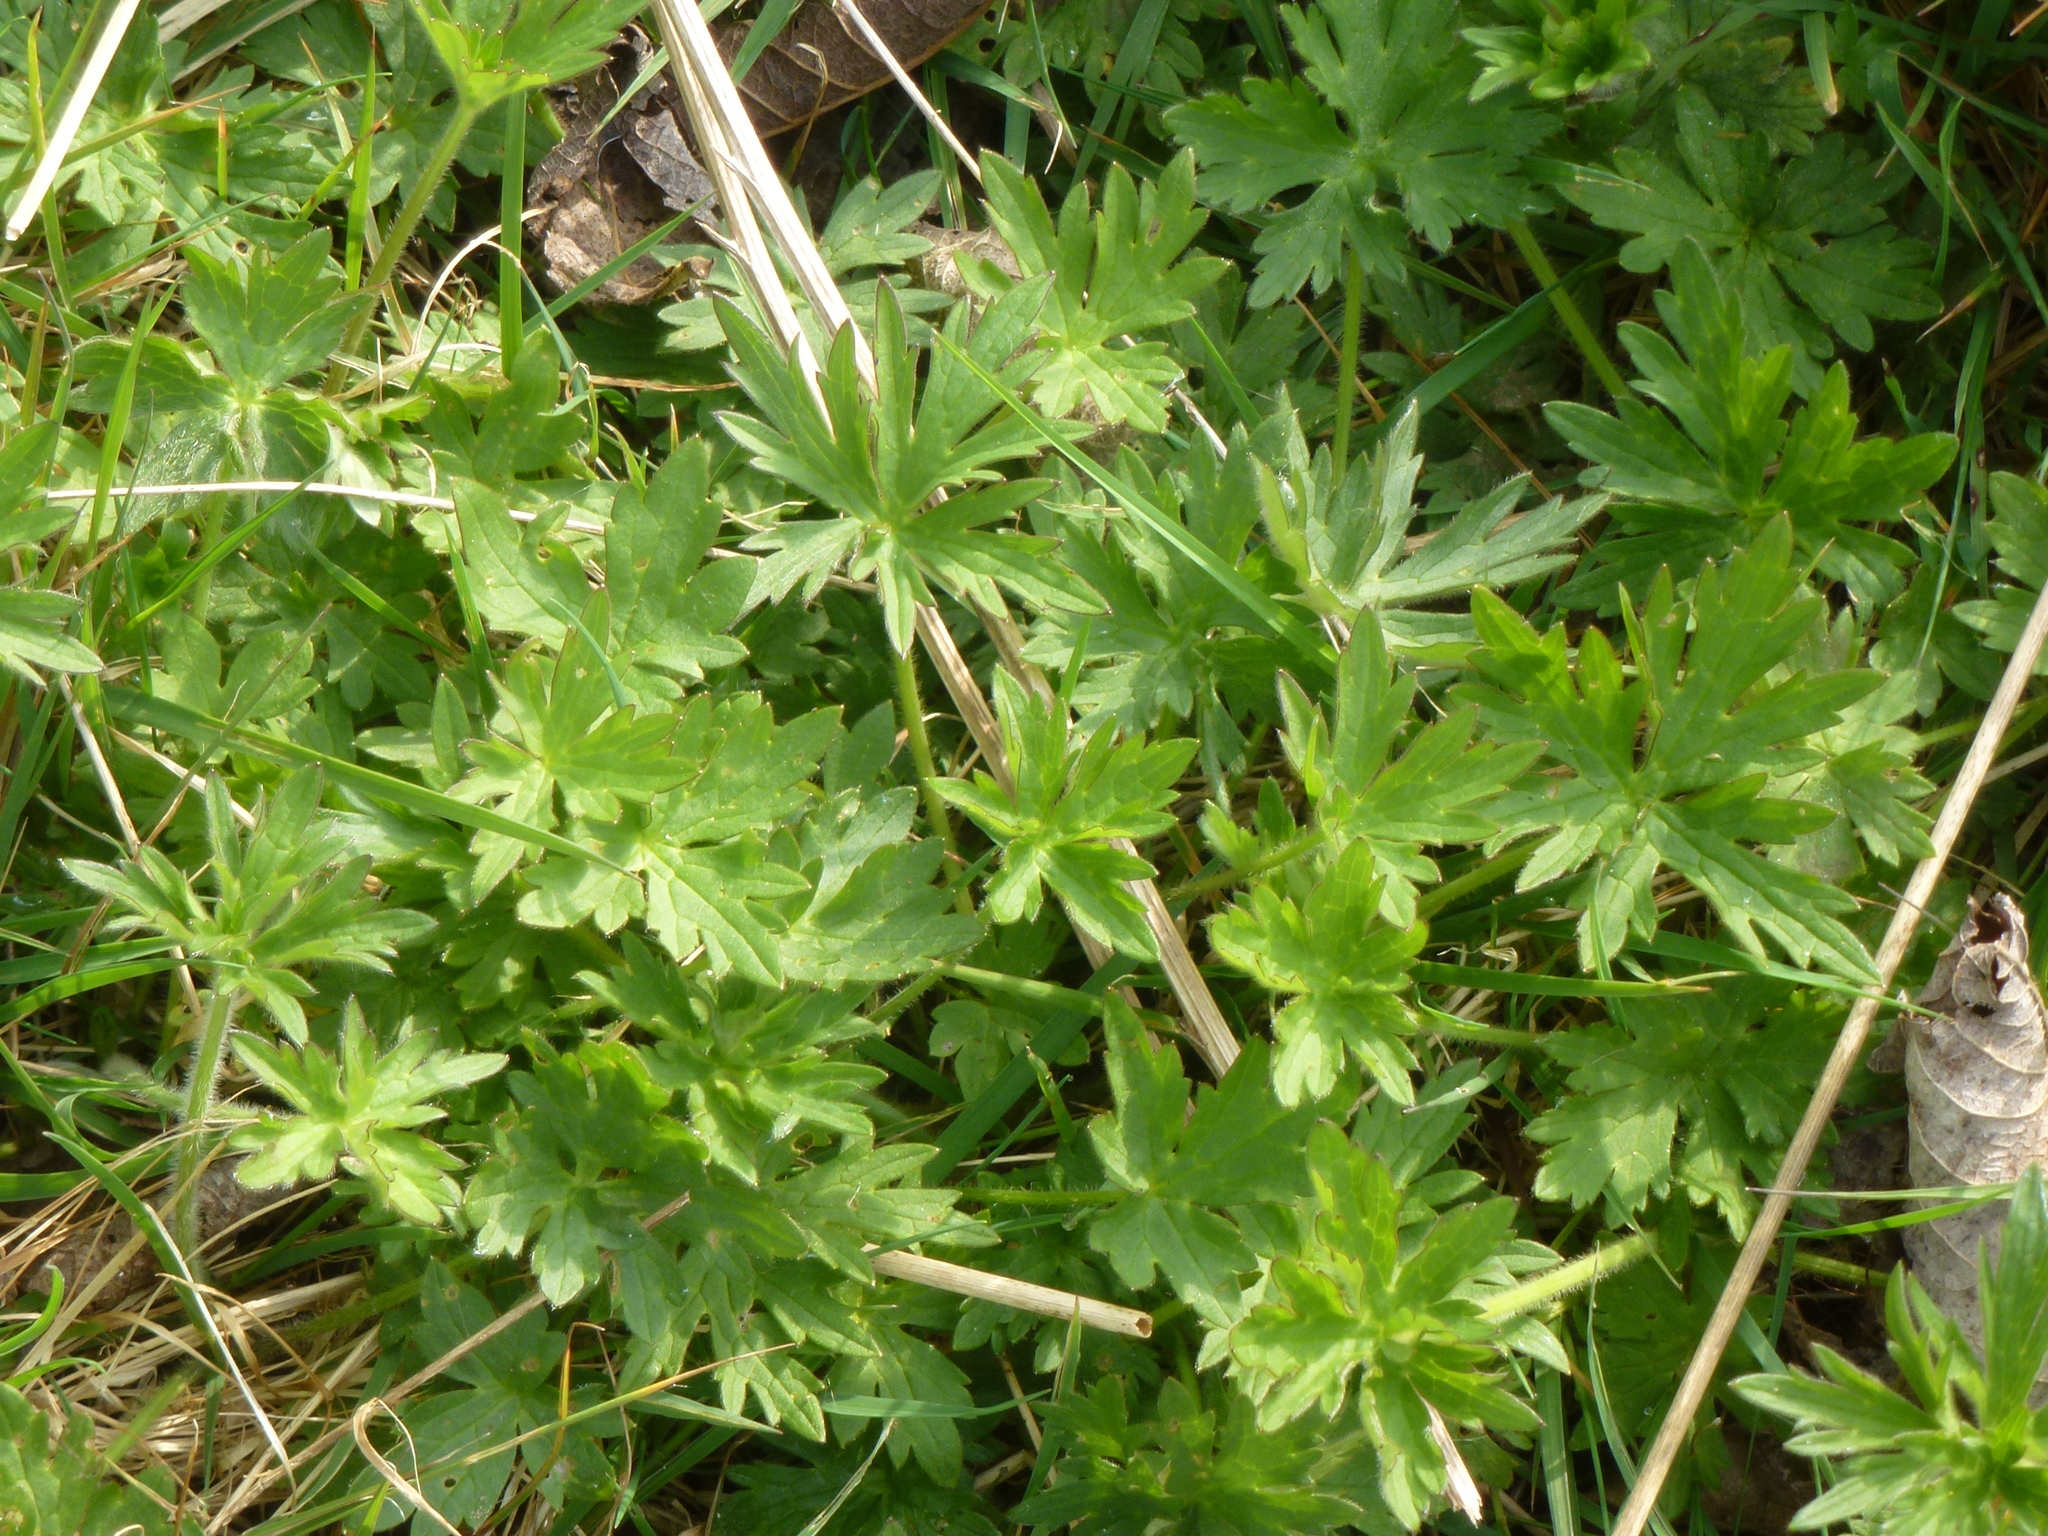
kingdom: Plantae
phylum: Tracheophyta
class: Magnoliopsida
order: Ranunculales
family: Ranunculaceae
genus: Ranunculus
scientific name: Ranunculus repens
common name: Creeping buttercup
